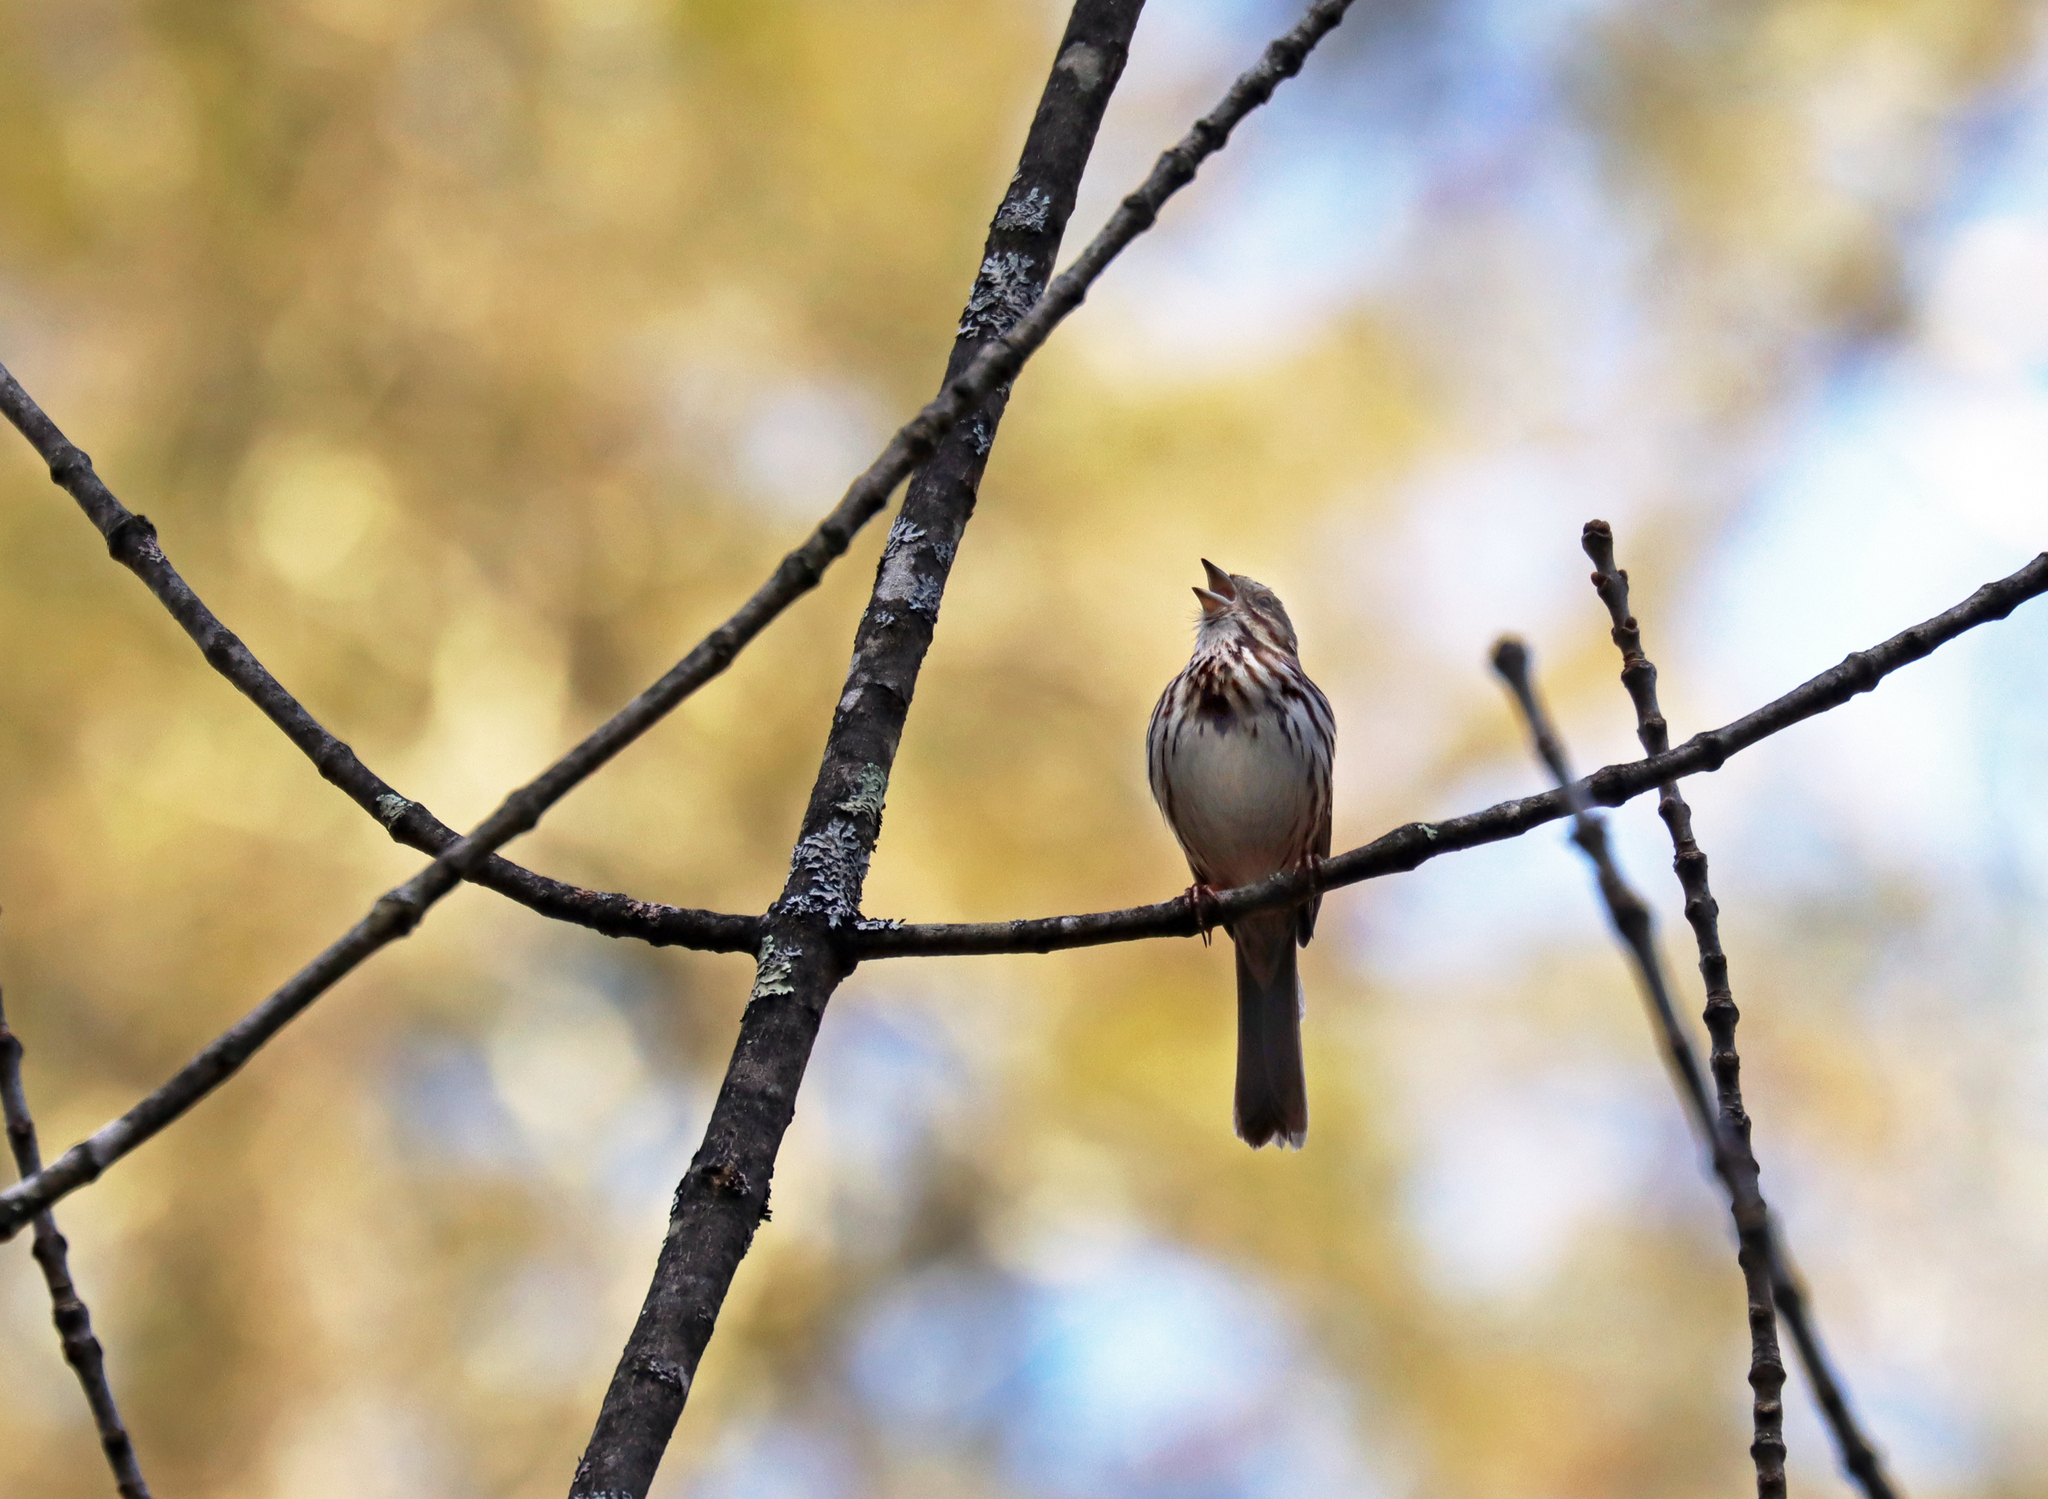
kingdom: Animalia
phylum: Chordata
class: Aves
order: Passeriformes
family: Passerellidae
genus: Melospiza
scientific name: Melospiza melodia
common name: Song sparrow
